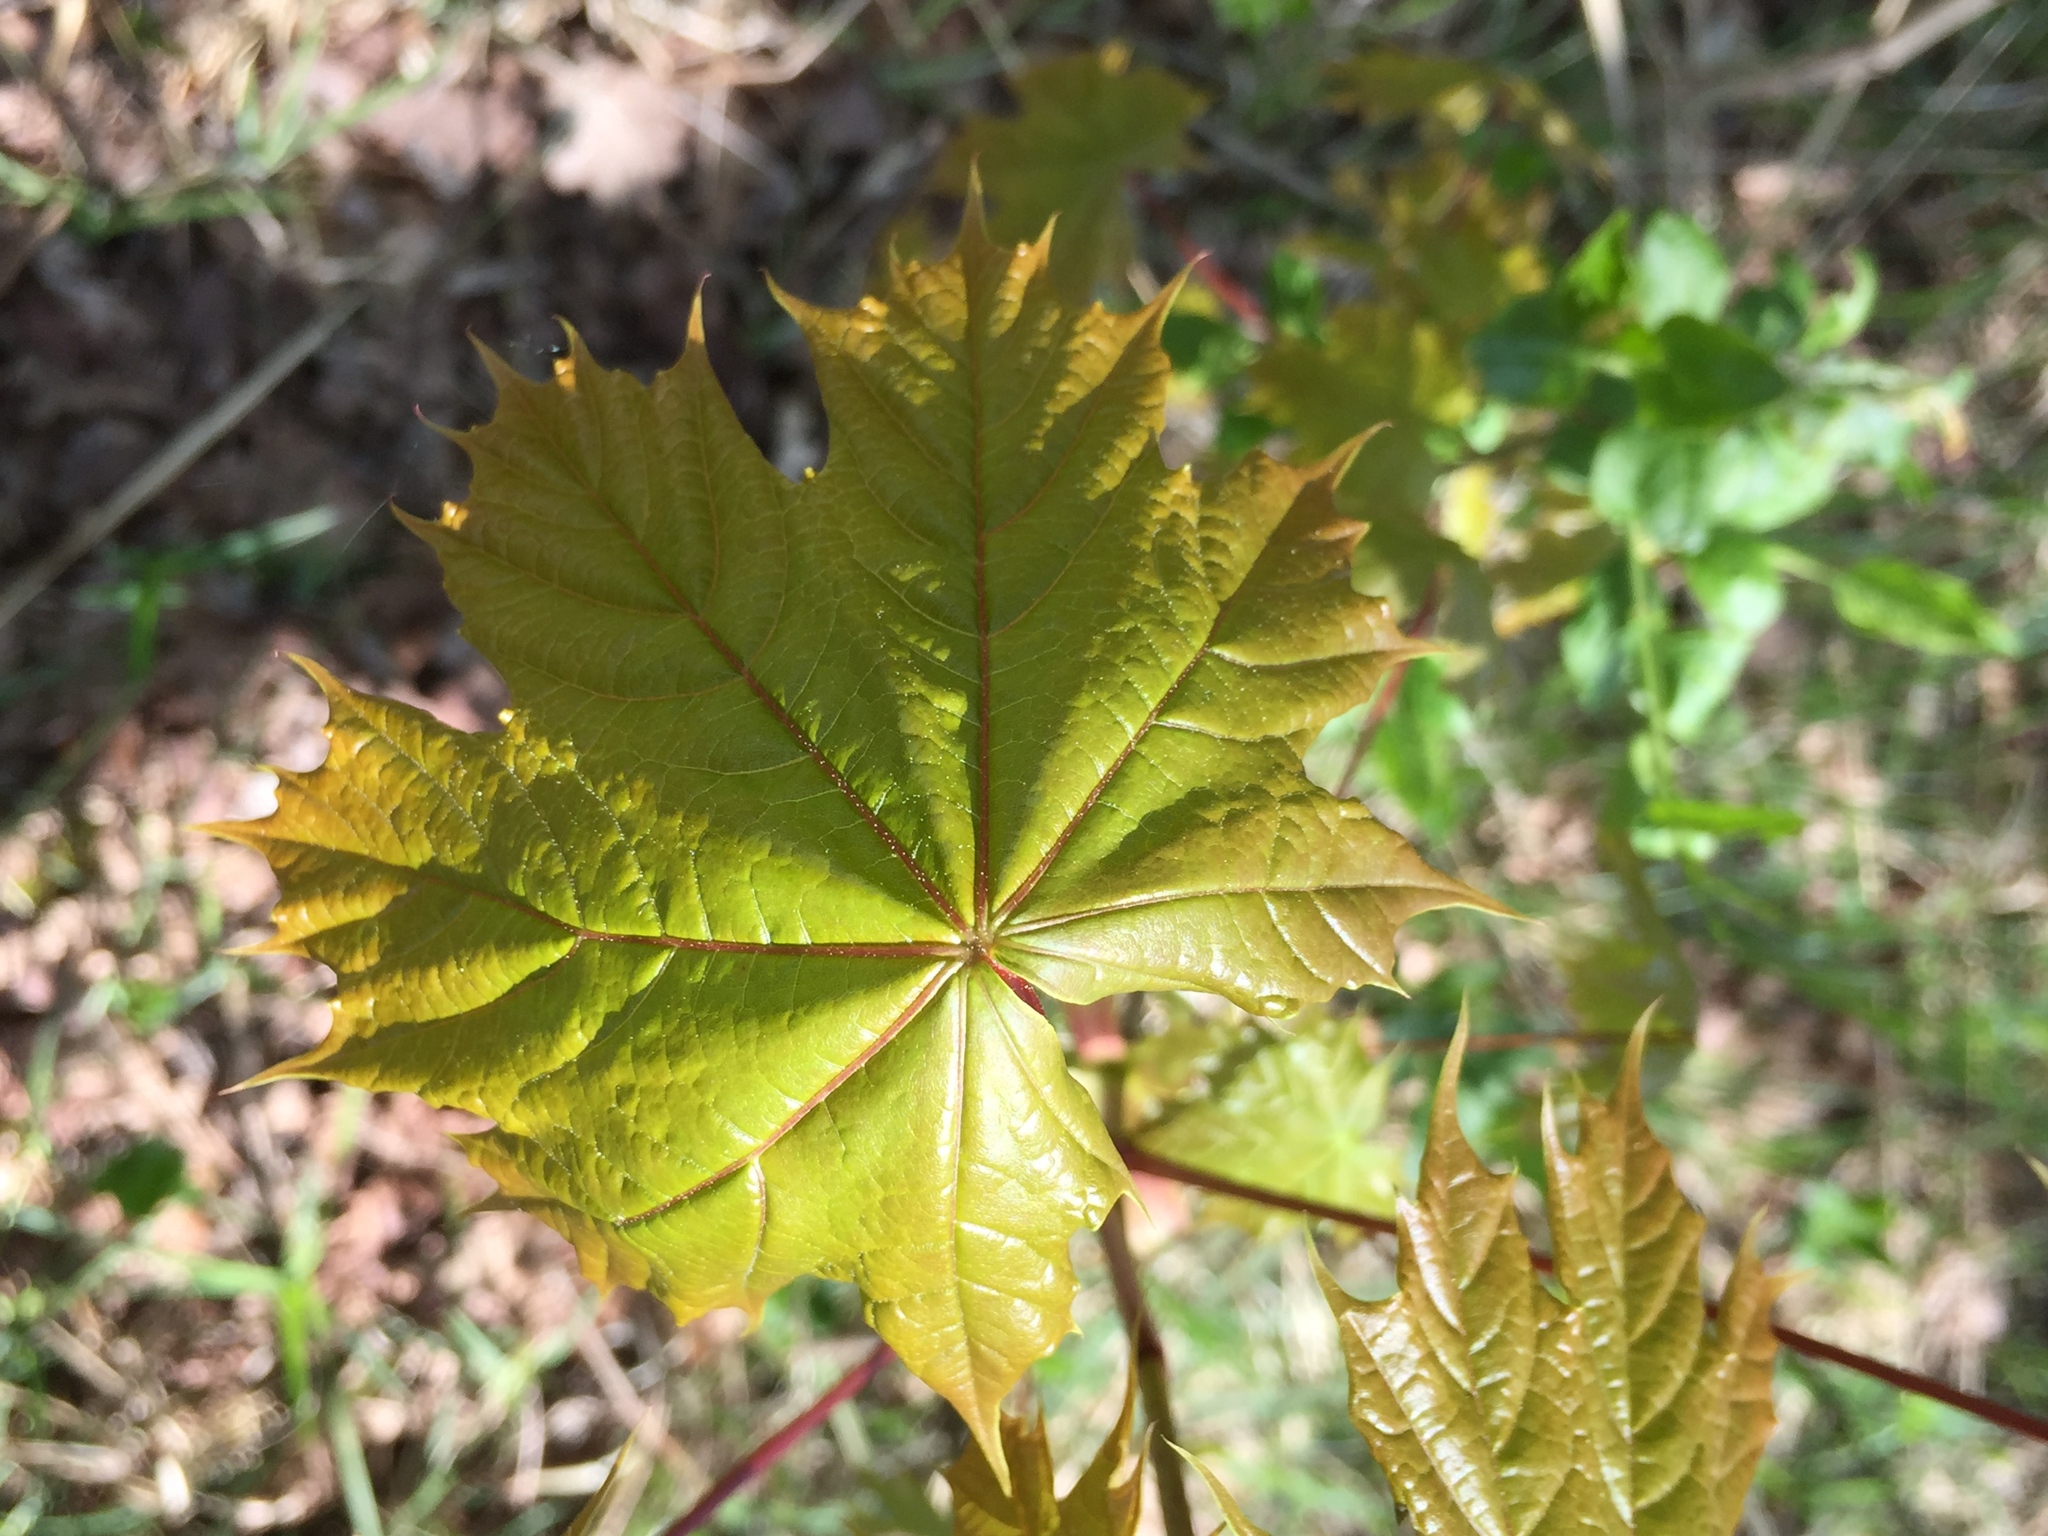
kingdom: Plantae
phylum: Tracheophyta
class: Magnoliopsida
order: Sapindales
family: Sapindaceae
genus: Acer
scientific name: Acer platanoides
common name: Norway maple
